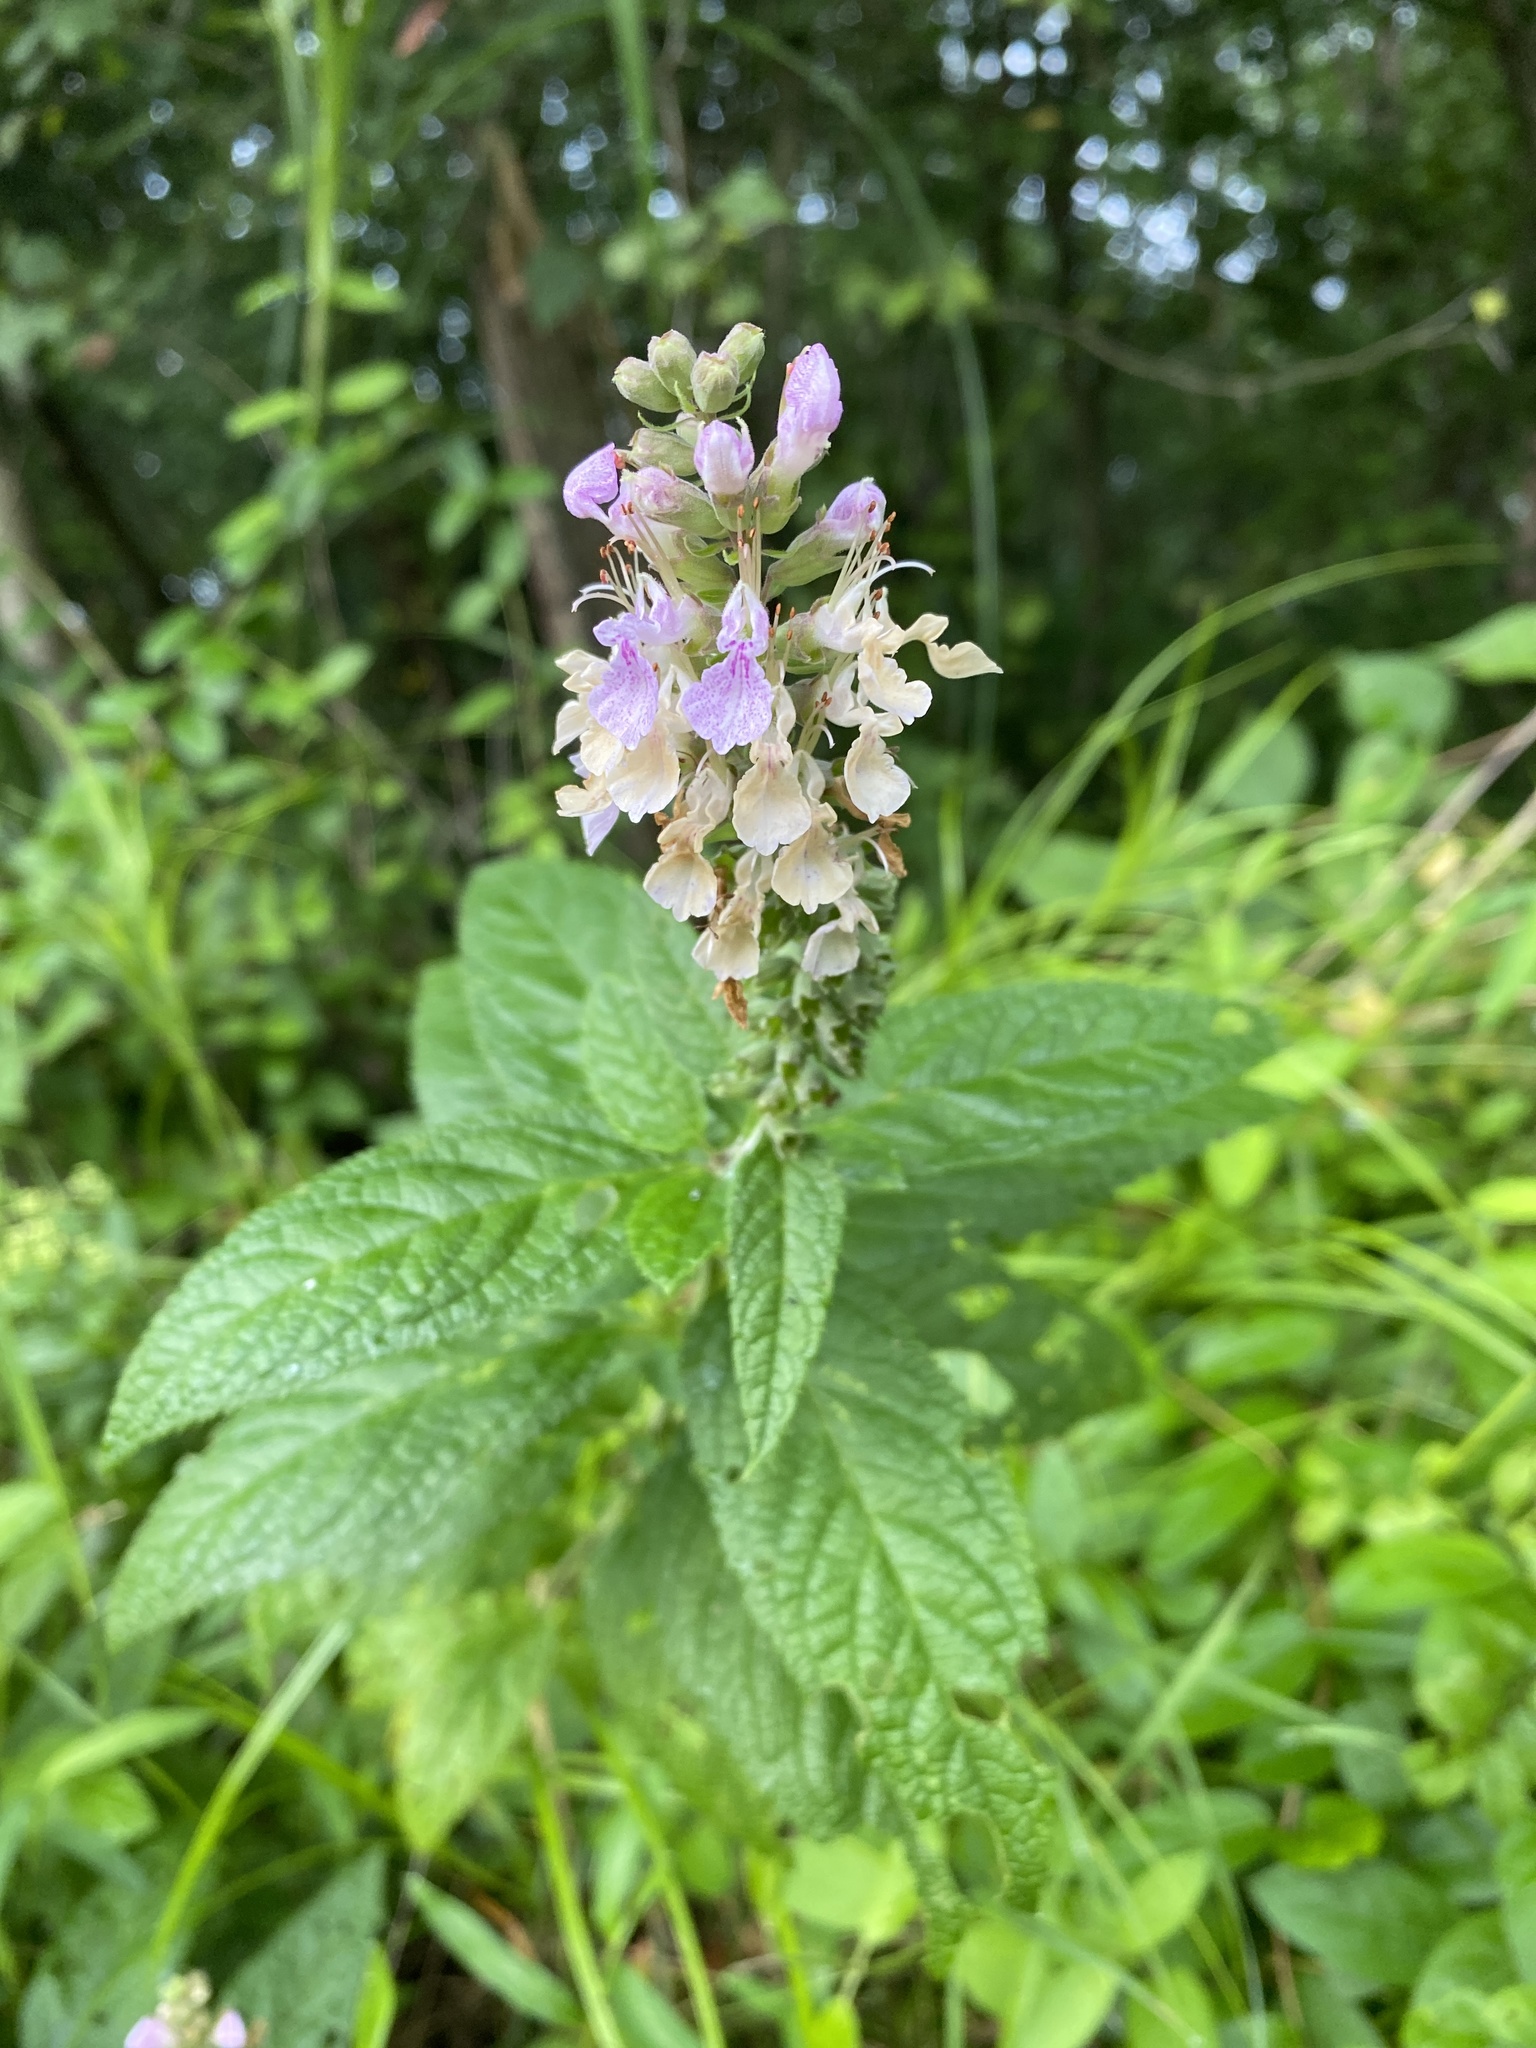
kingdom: Plantae
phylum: Tracheophyta
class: Magnoliopsida
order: Lamiales
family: Lamiaceae
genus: Teucrium
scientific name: Teucrium canadense
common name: American germander
